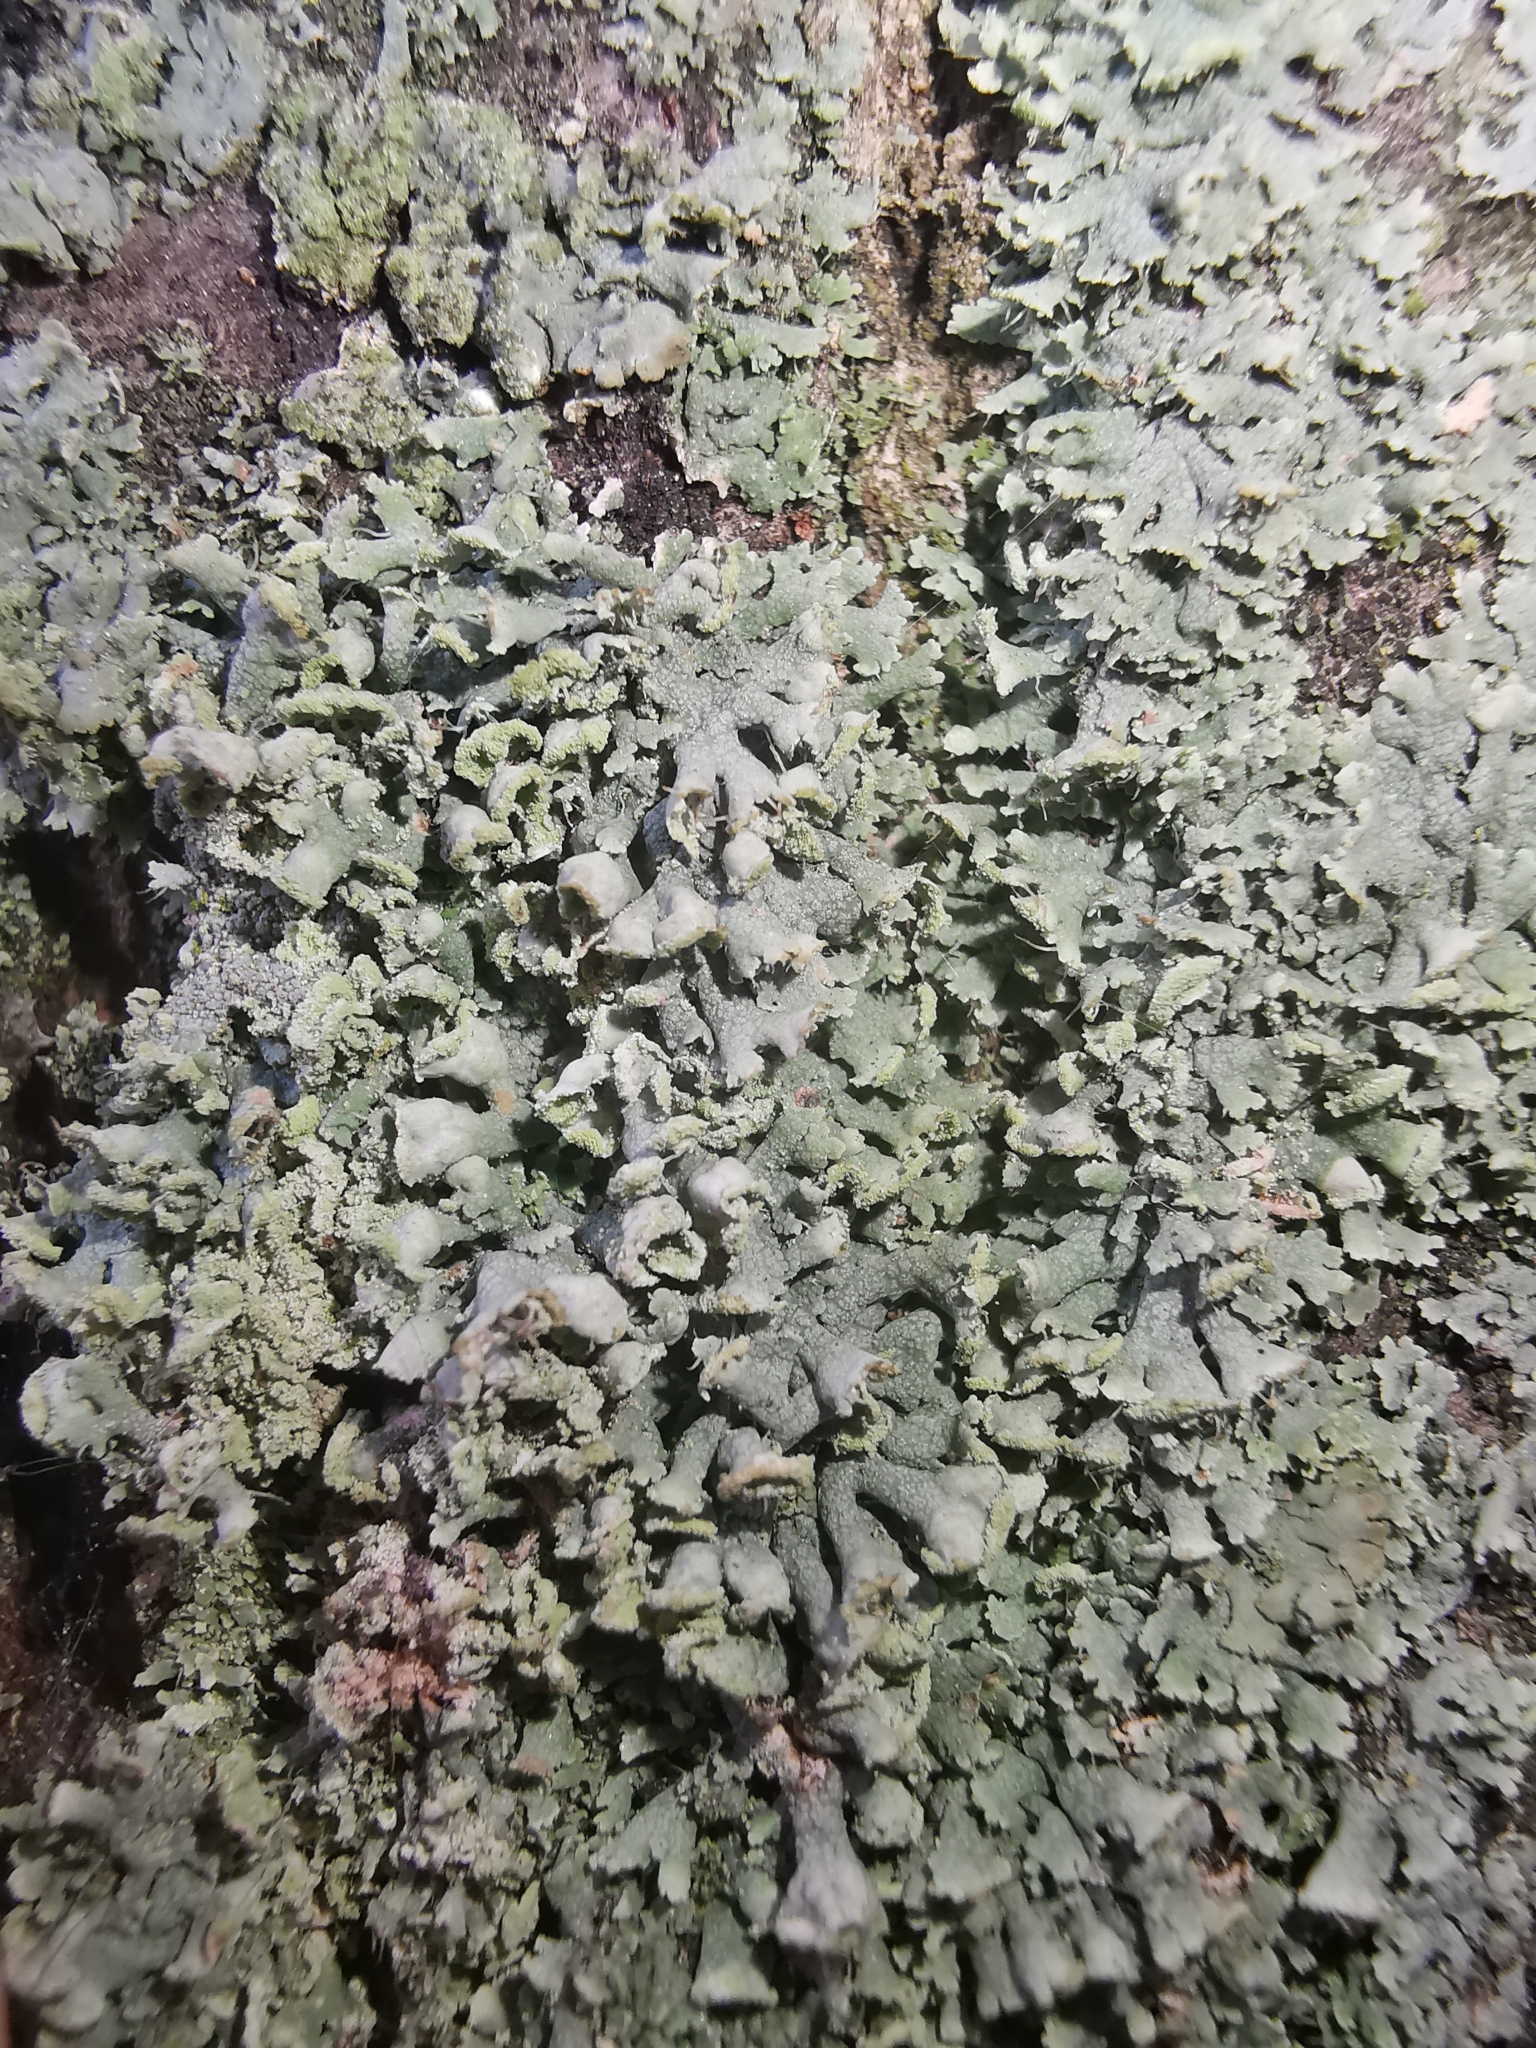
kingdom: Fungi
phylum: Ascomycota
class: Lecanoromycetes
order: Caliciales
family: Physciaceae
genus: Physcia
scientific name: Physcia adscendens
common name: Hooded rosette lichen
